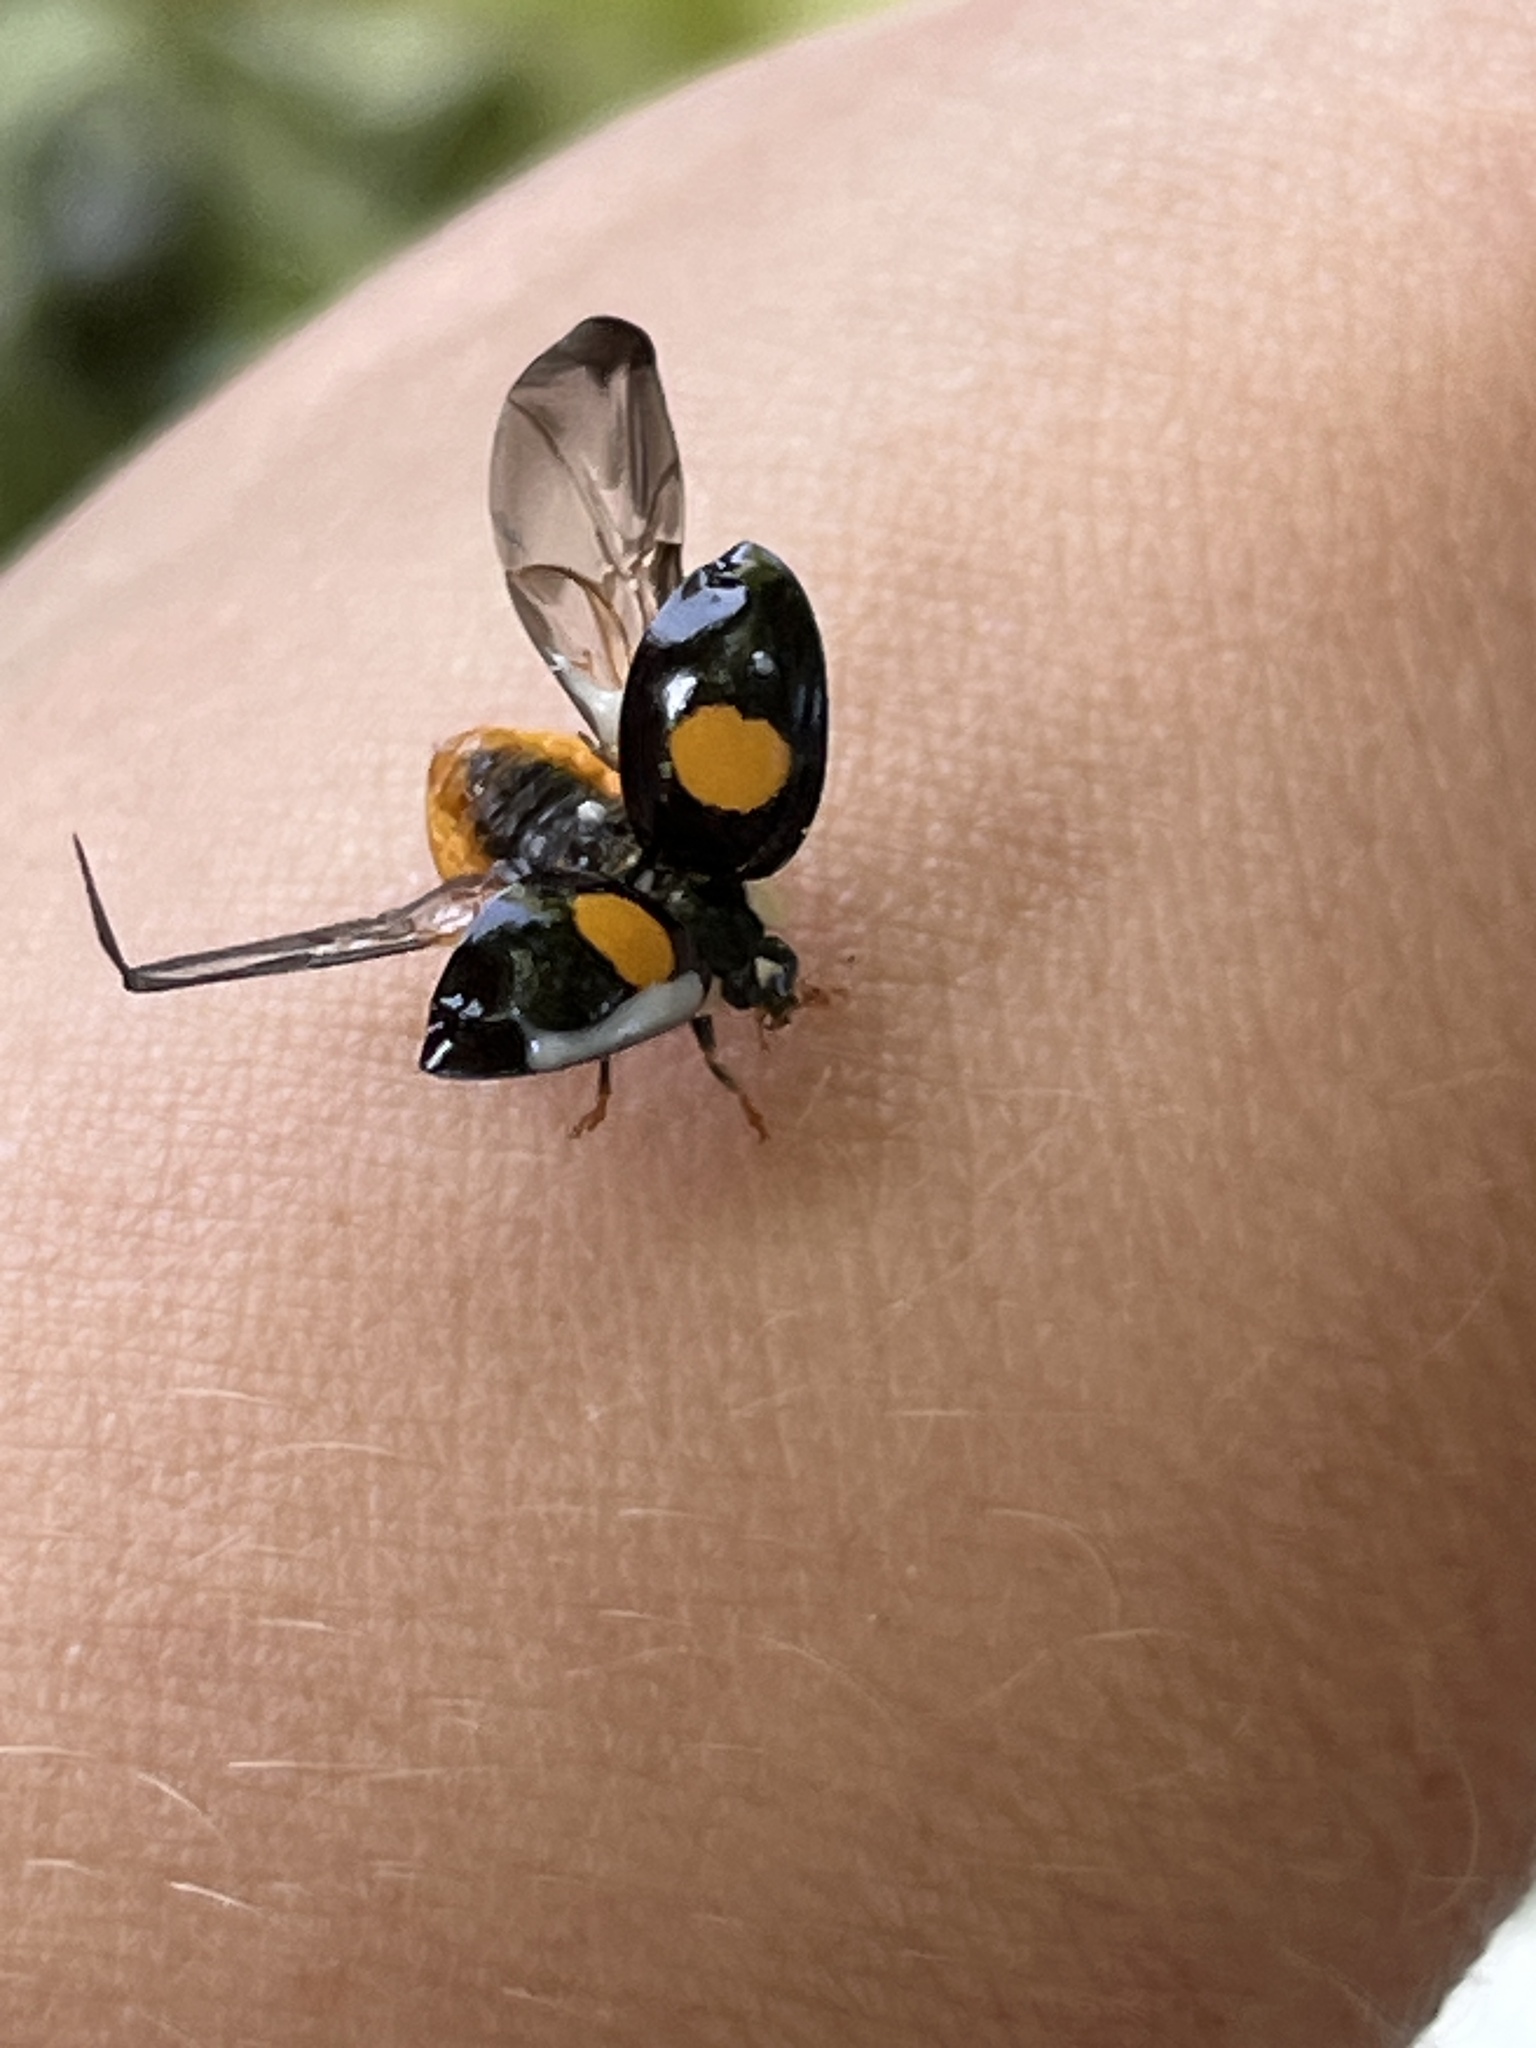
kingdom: Animalia
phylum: Arthropoda
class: Insecta
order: Coleoptera
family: Coccinellidae
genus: Harmonia
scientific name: Harmonia axyridis
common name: Harlequin ladybird
